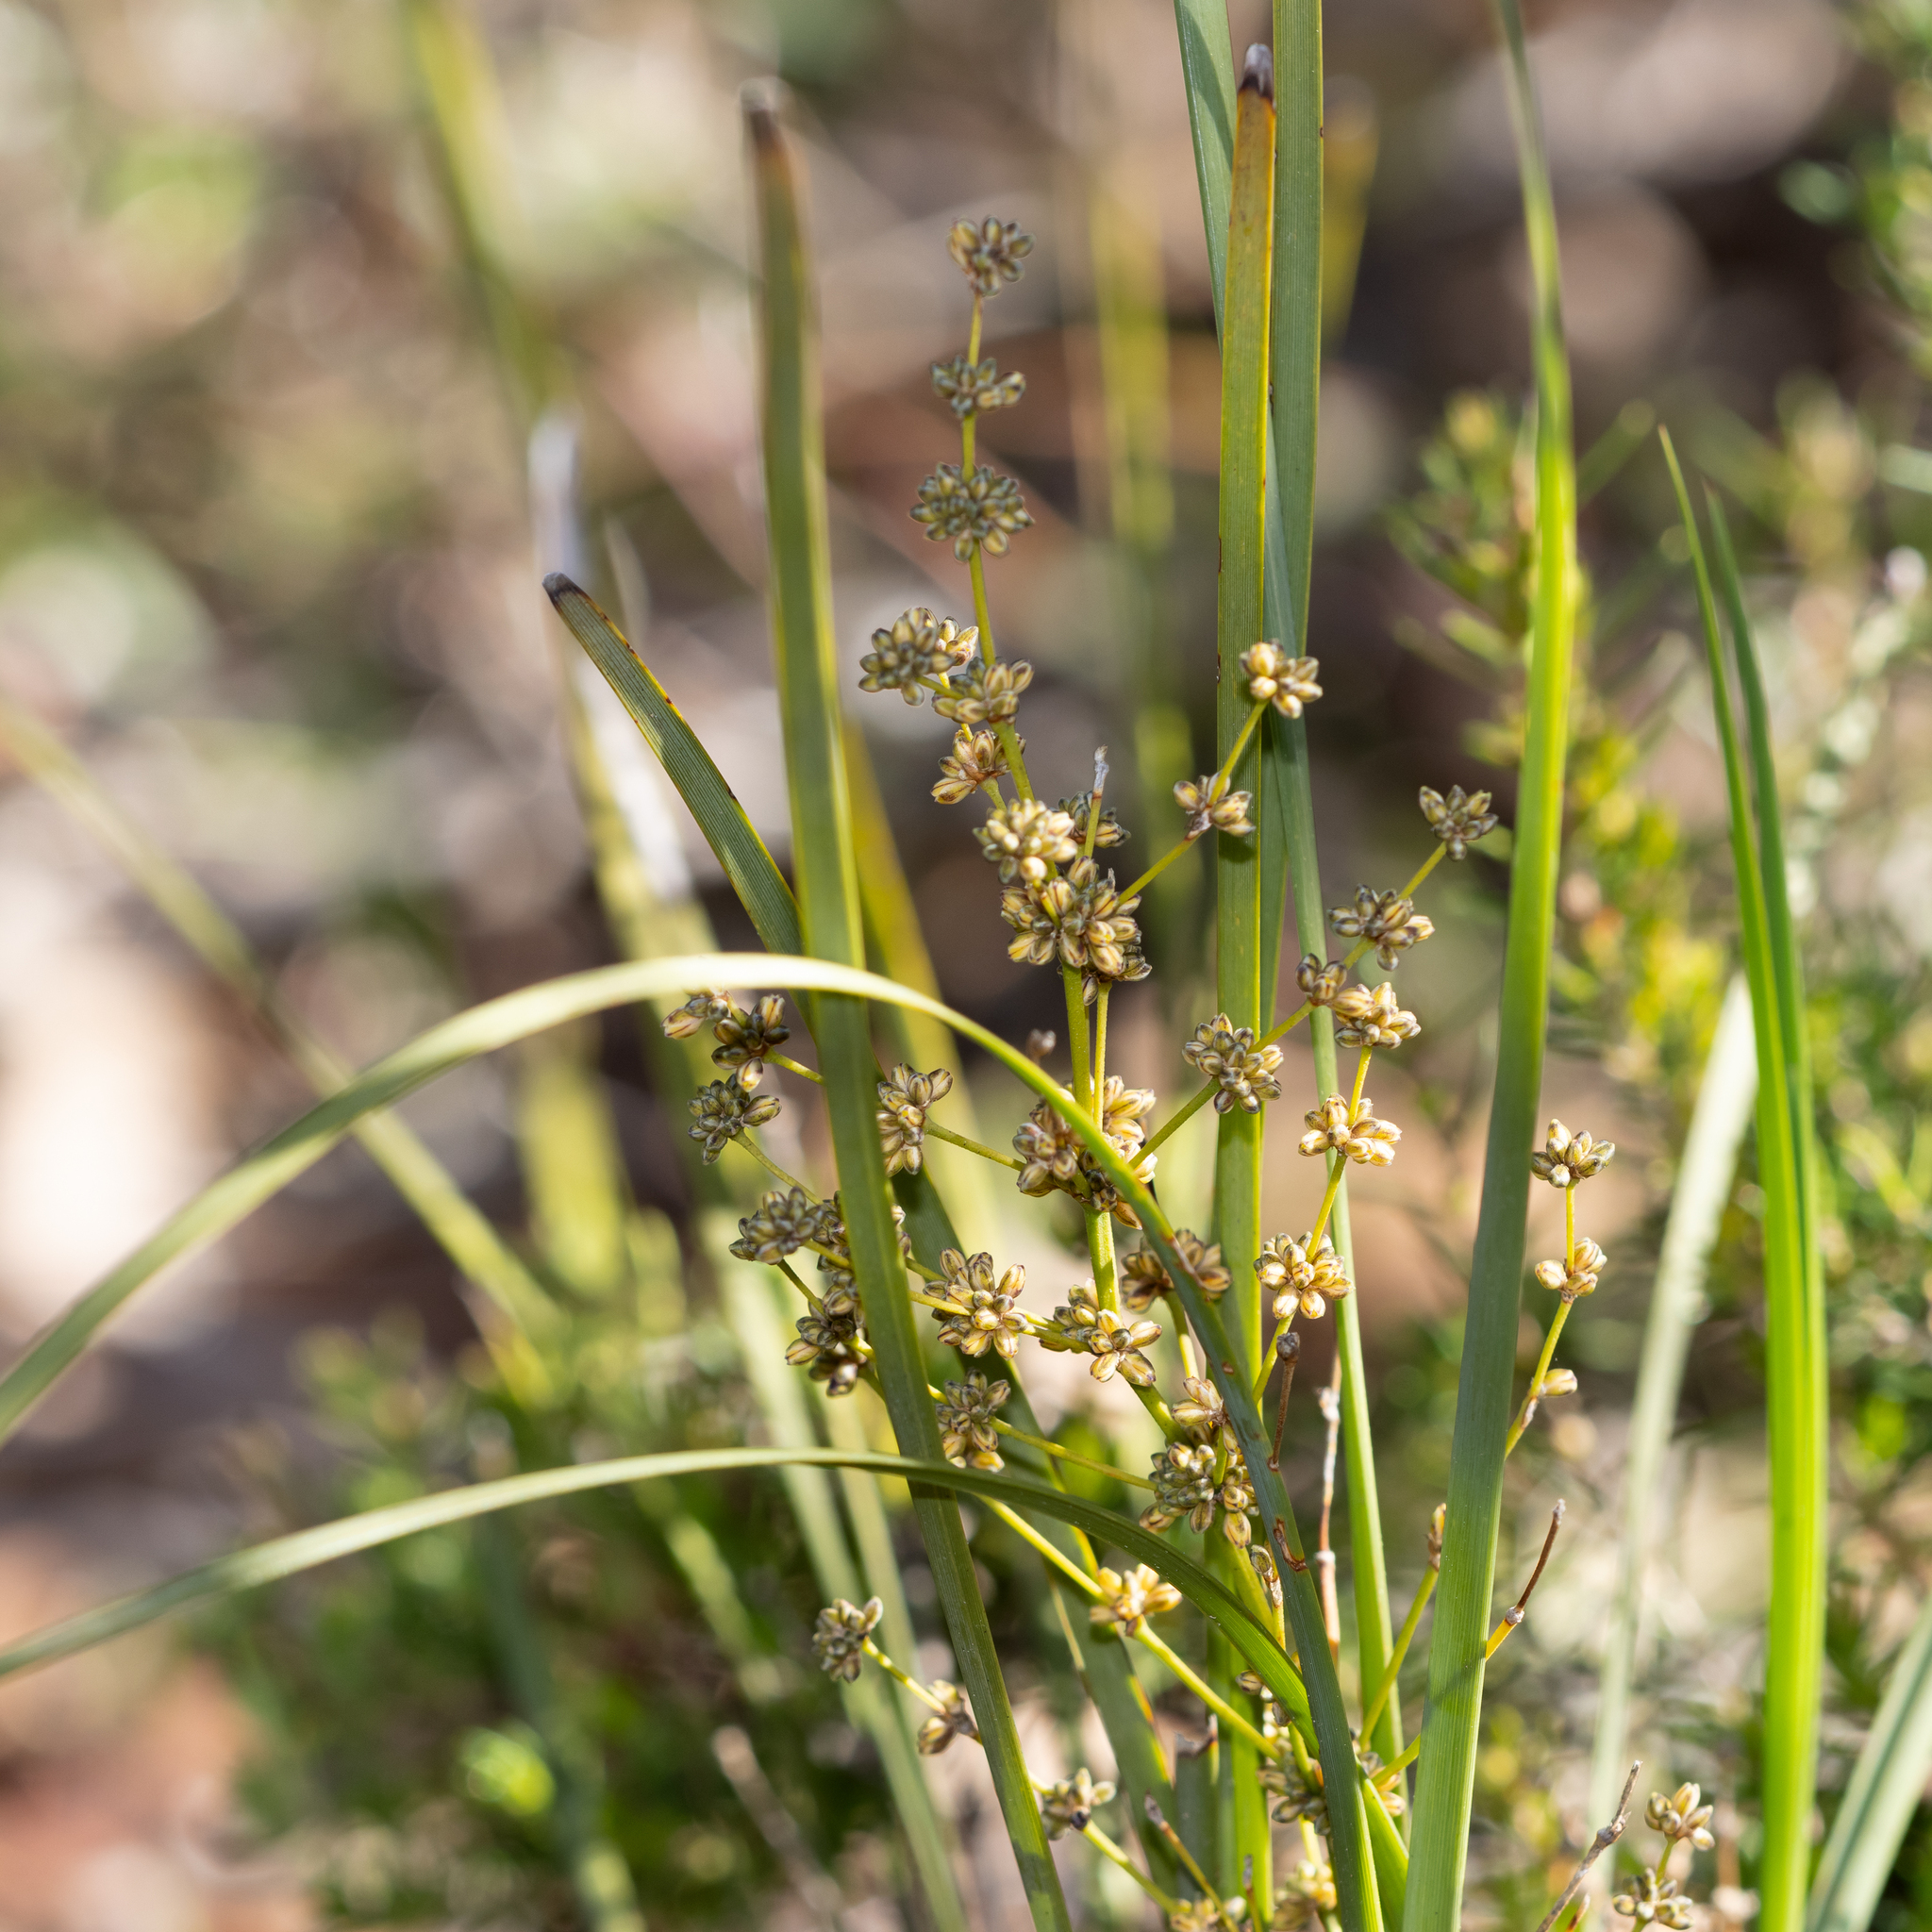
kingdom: Plantae
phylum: Tracheophyta
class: Liliopsida
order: Asparagales
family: Asparagaceae
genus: Lomandra
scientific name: Lomandra multiflora
